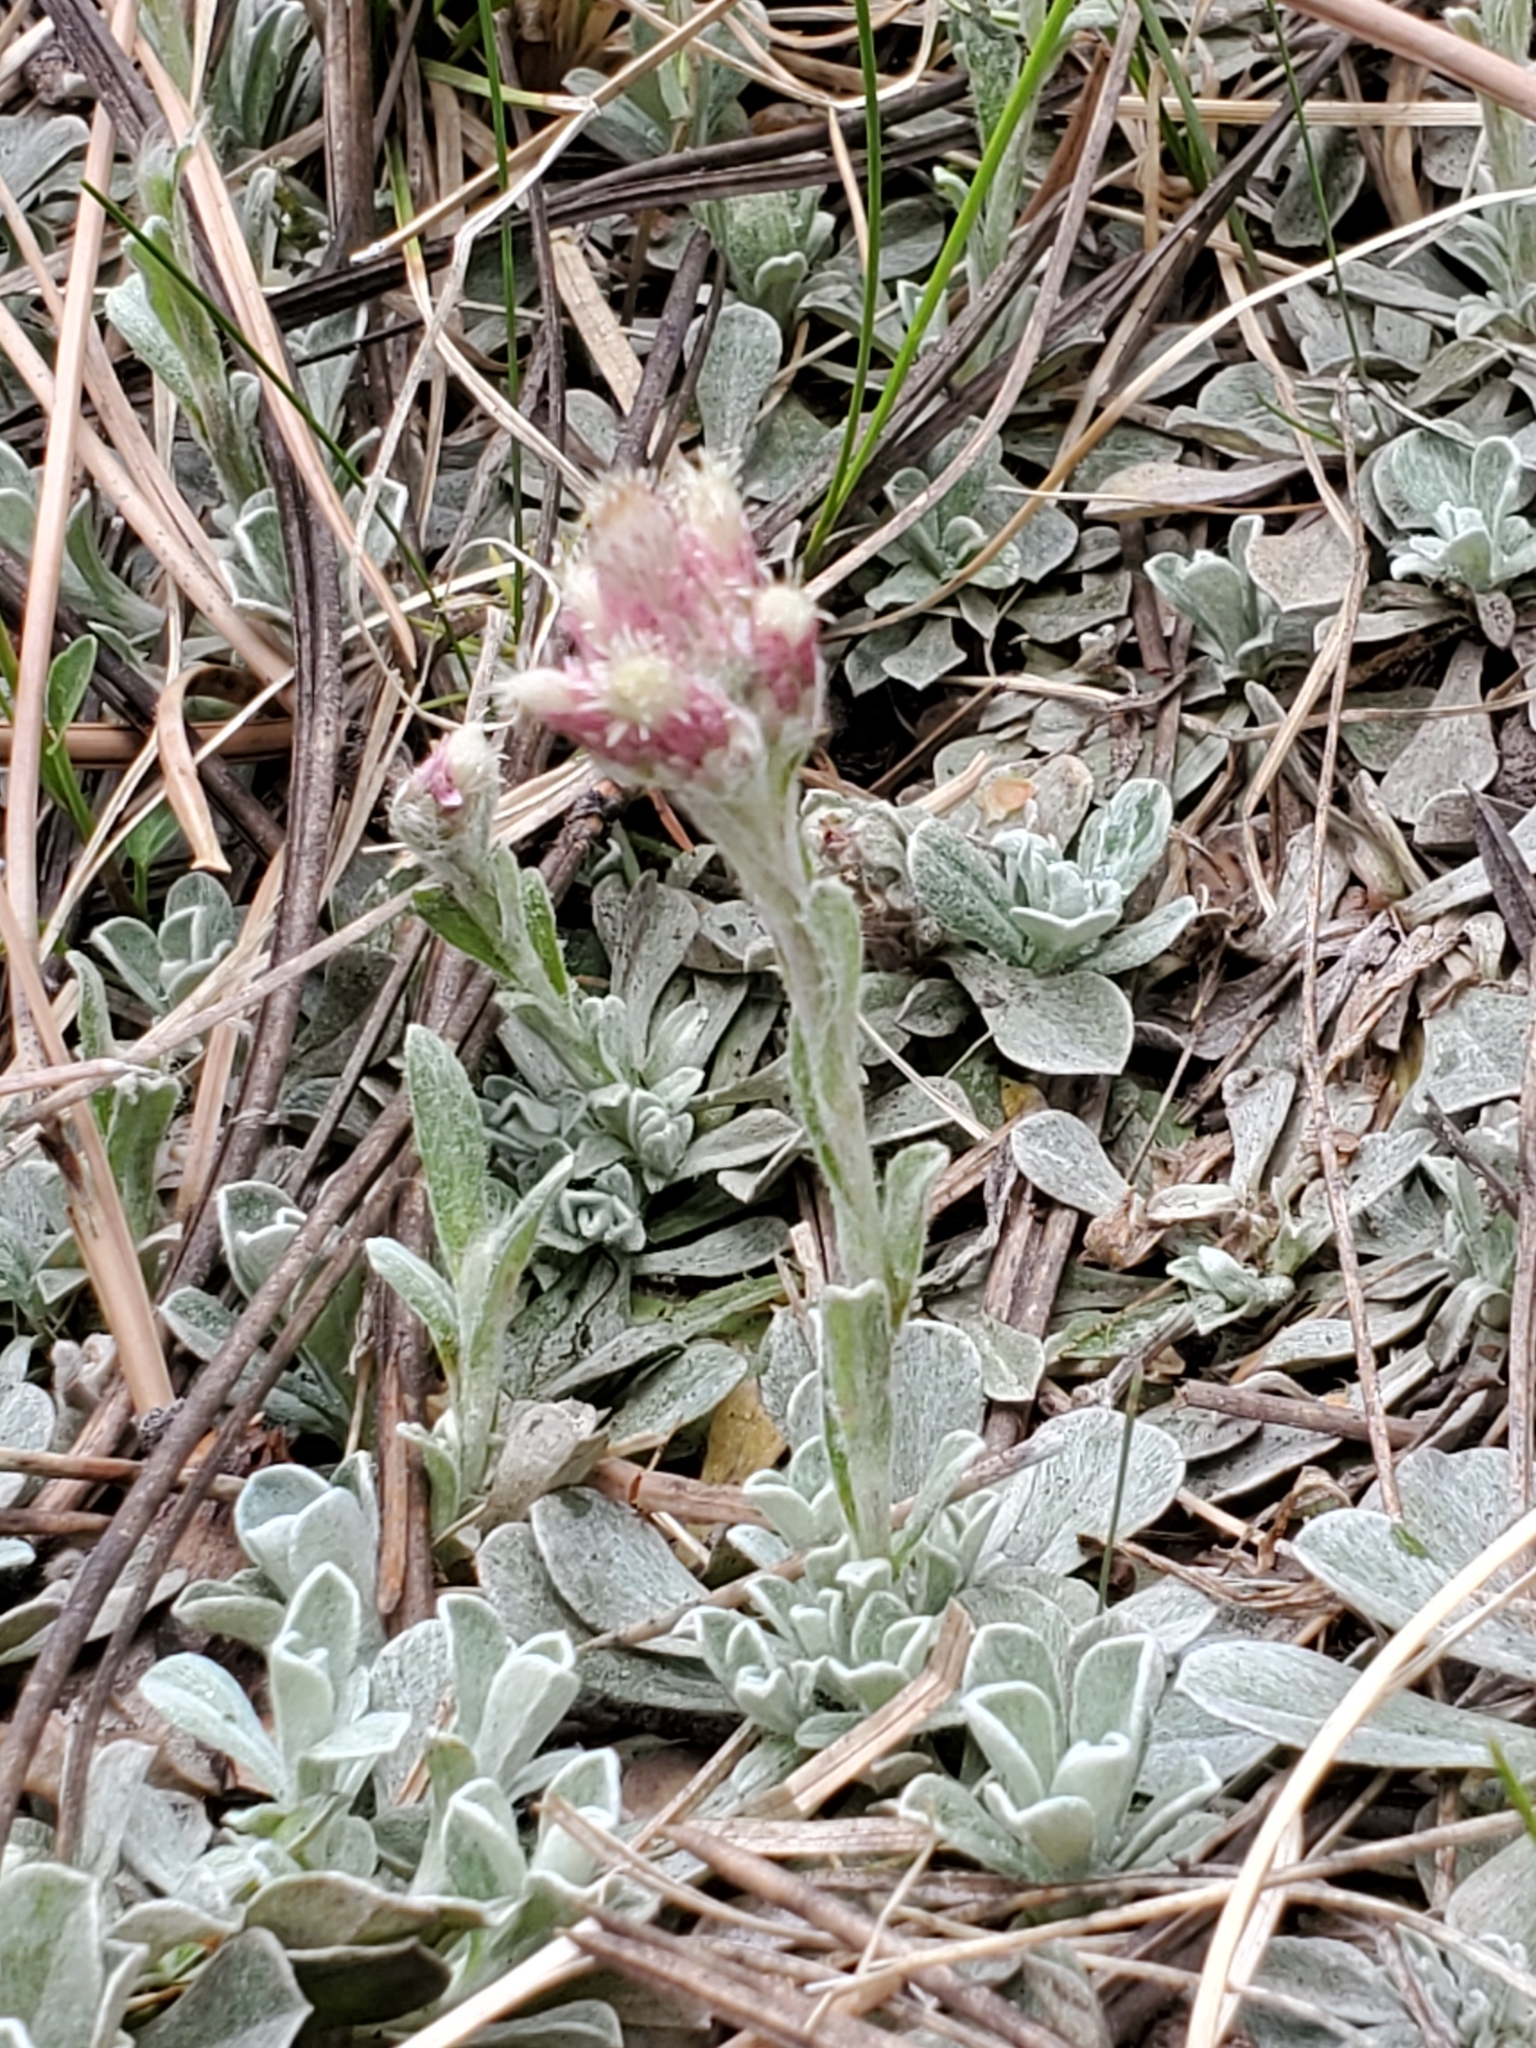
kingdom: Plantae
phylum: Tracheophyta
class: Magnoliopsida
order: Asterales
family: Asteraceae
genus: Antennaria
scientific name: Antennaria rosea
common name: Rosy pussytoes
